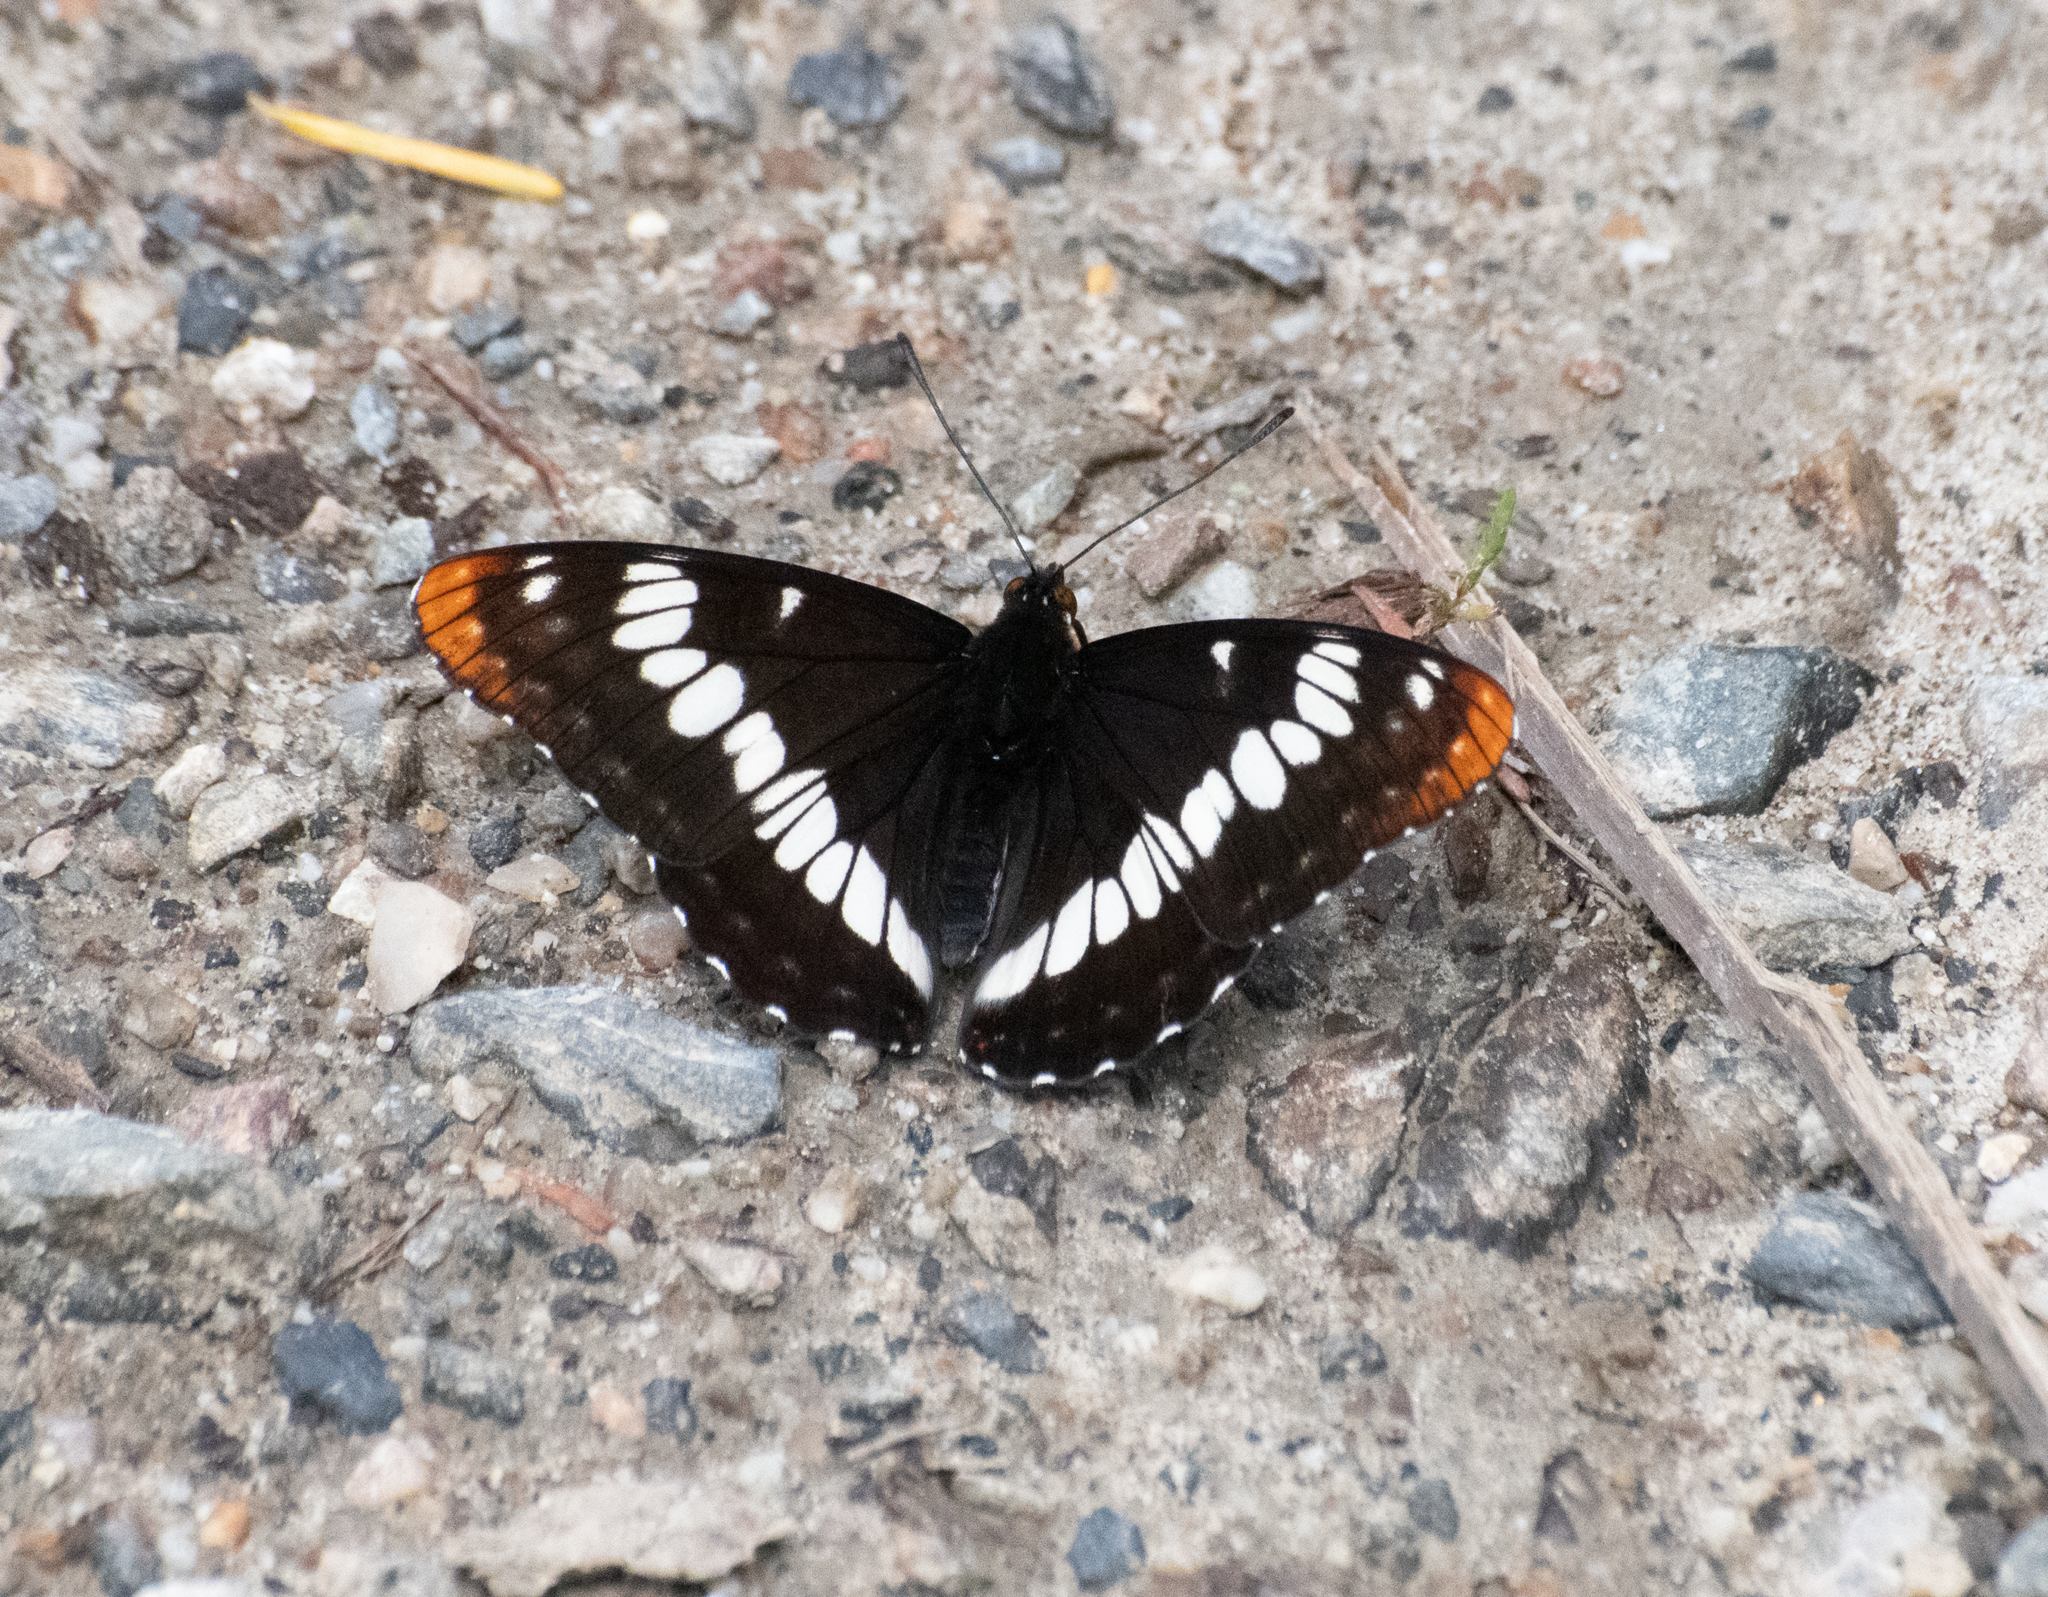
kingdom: Animalia
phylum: Arthropoda
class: Insecta
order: Lepidoptera
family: Nymphalidae
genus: Limenitis
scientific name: Limenitis lorquini
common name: Lorquin's admiral
